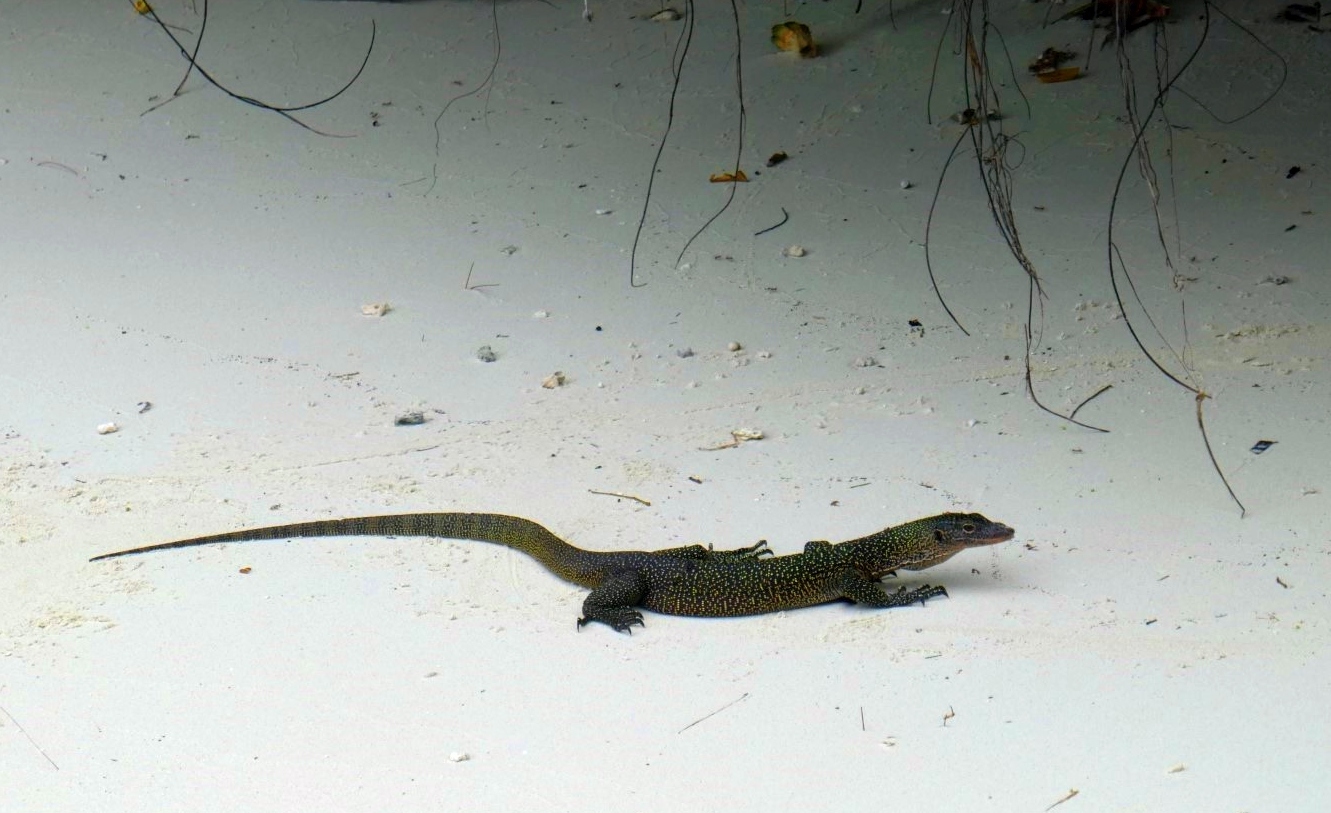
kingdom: Animalia
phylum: Chordata
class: Squamata
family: Varanidae
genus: Varanus
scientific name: Varanus indicus
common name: Mangrove monitor
